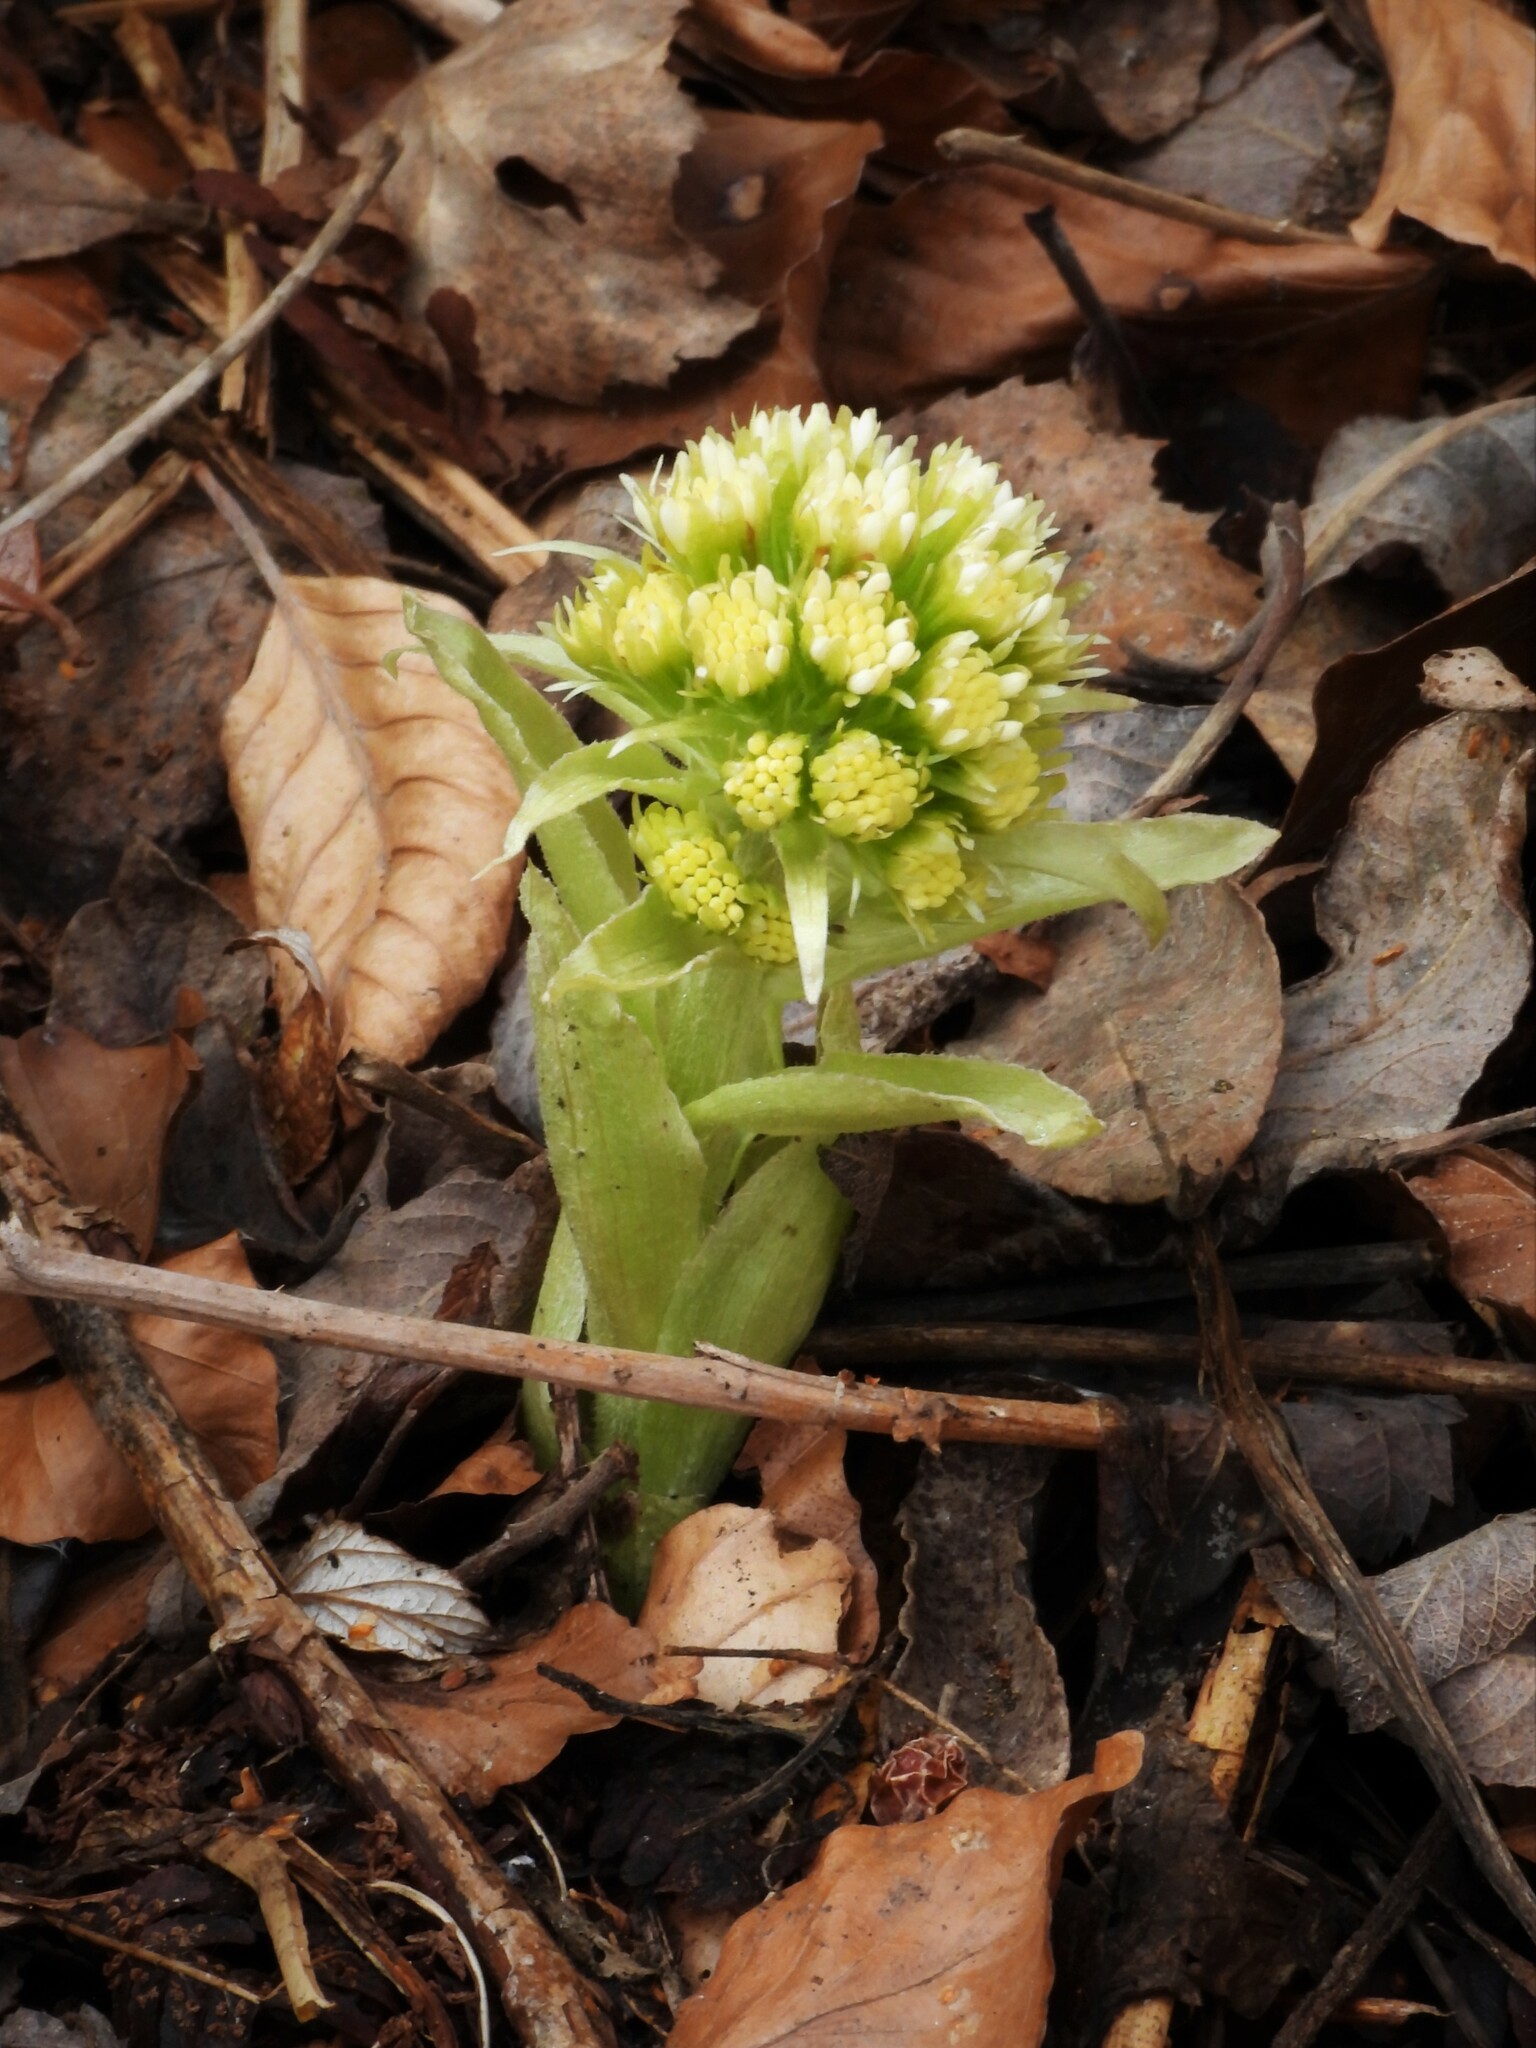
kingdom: Plantae
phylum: Tracheophyta
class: Magnoliopsida
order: Asterales
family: Asteraceae
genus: Petasites
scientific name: Petasites albus
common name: White butterbur
